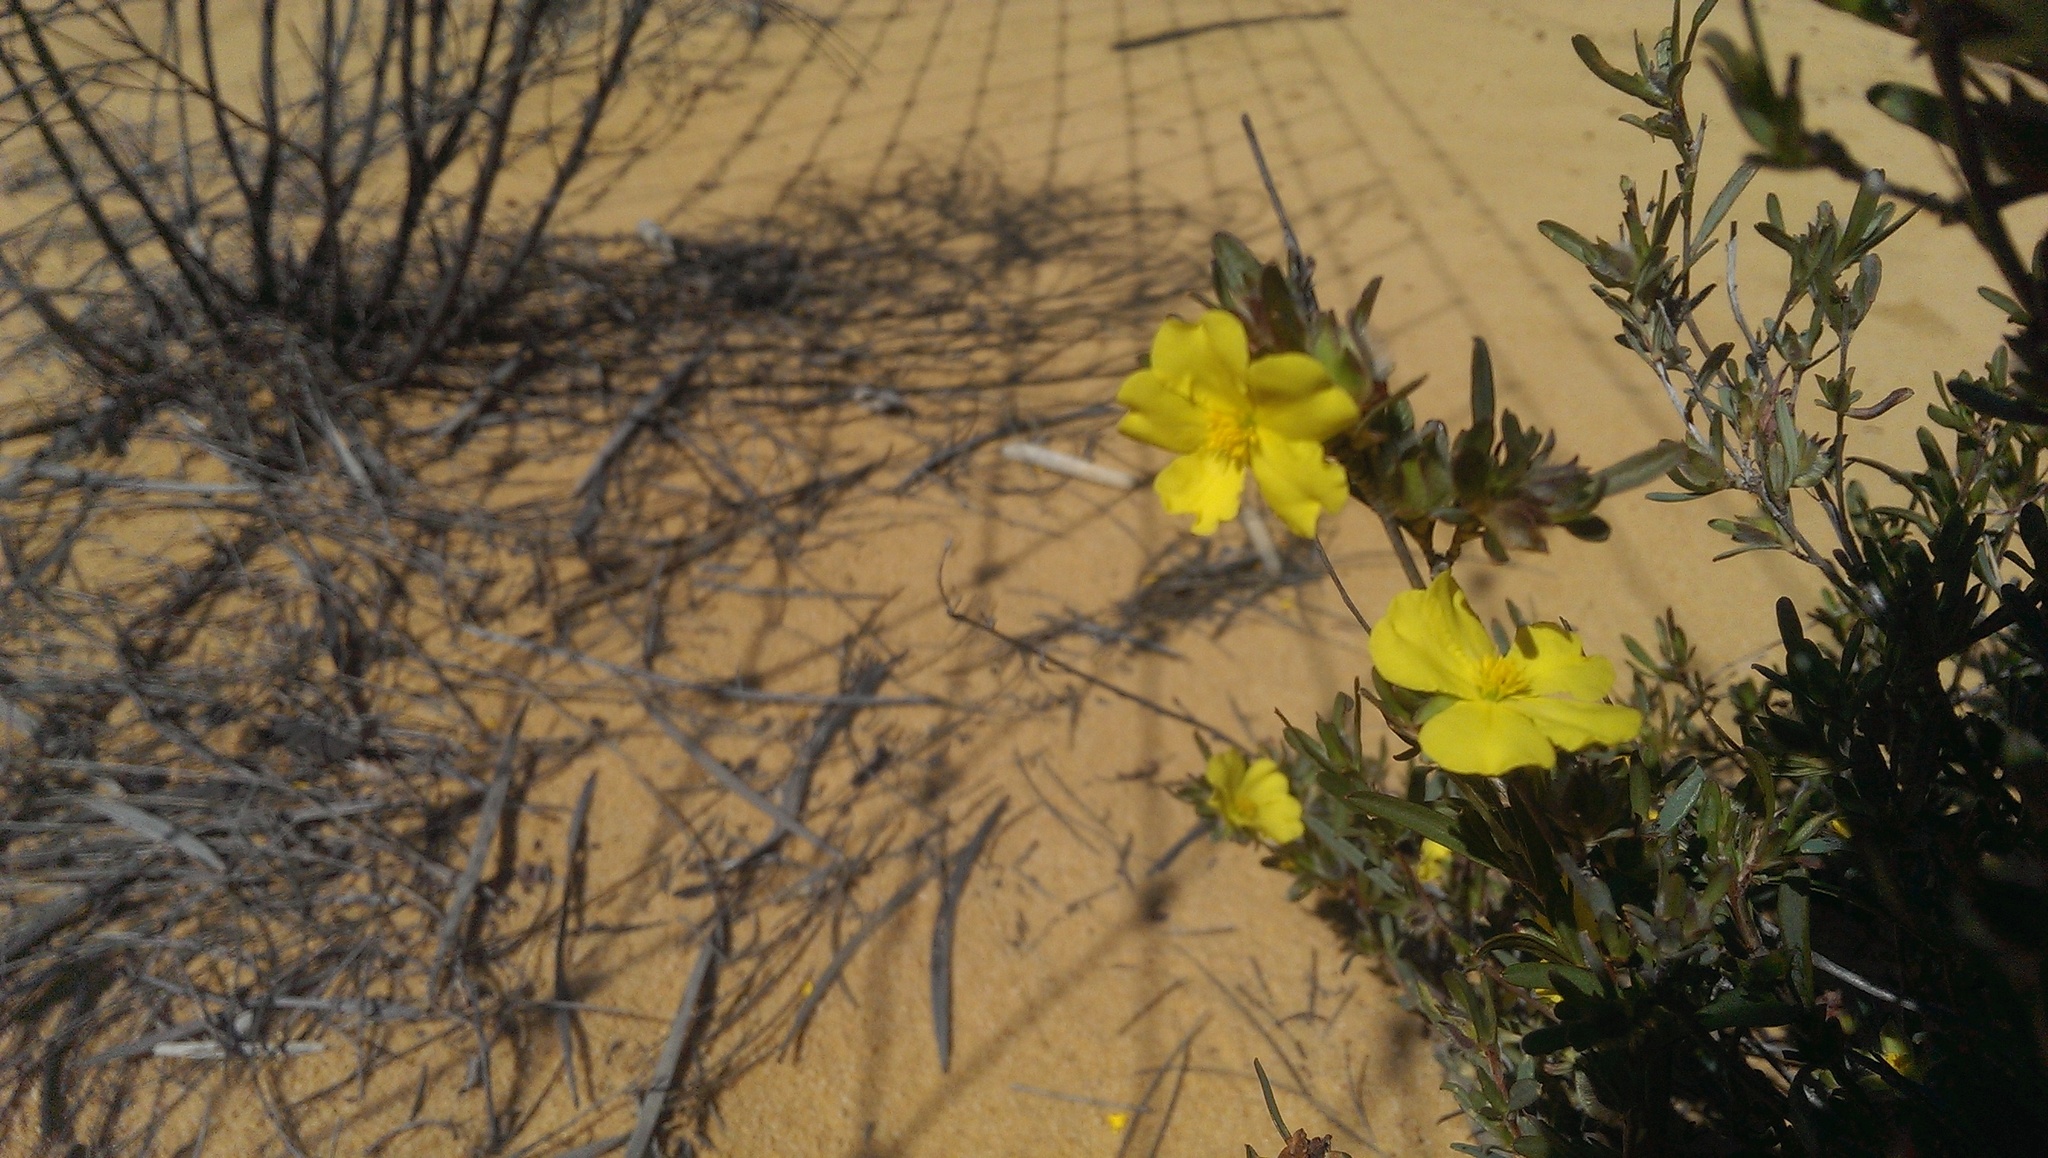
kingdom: Plantae
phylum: Tracheophyta
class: Magnoliopsida
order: Dilleniales
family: Dilleniaceae
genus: Hibbertia
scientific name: Hibbertia glomerosa
